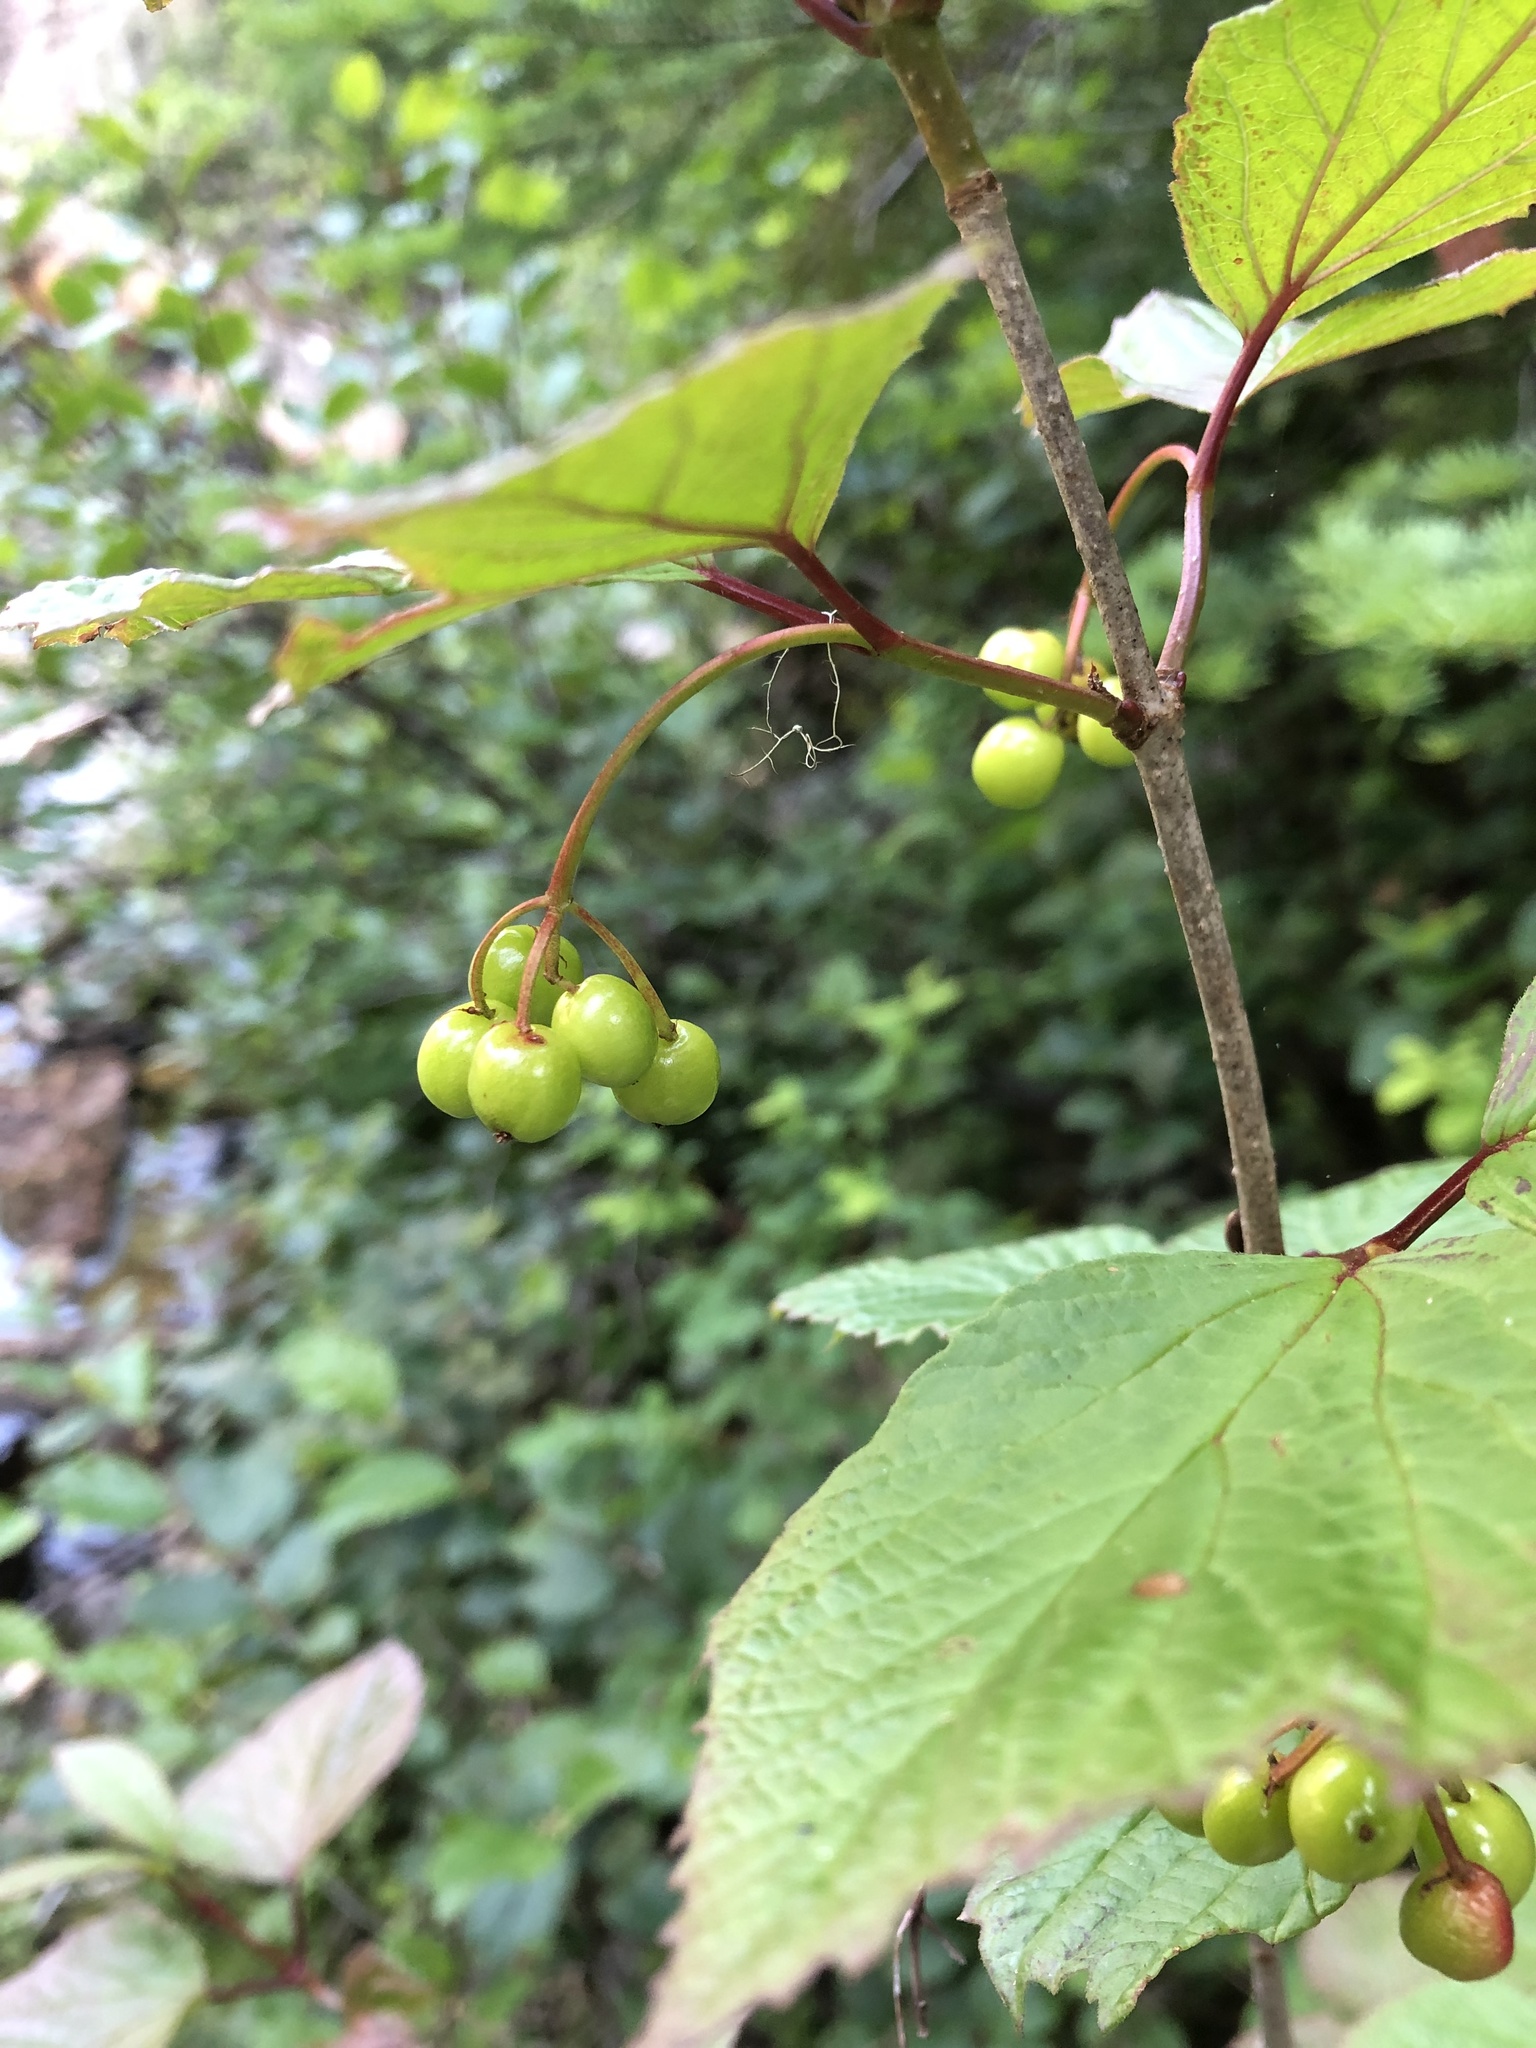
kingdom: Plantae
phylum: Tracheophyta
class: Magnoliopsida
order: Dipsacales
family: Viburnaceae
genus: Viburnum
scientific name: Viburnum edule
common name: Mooseberry
